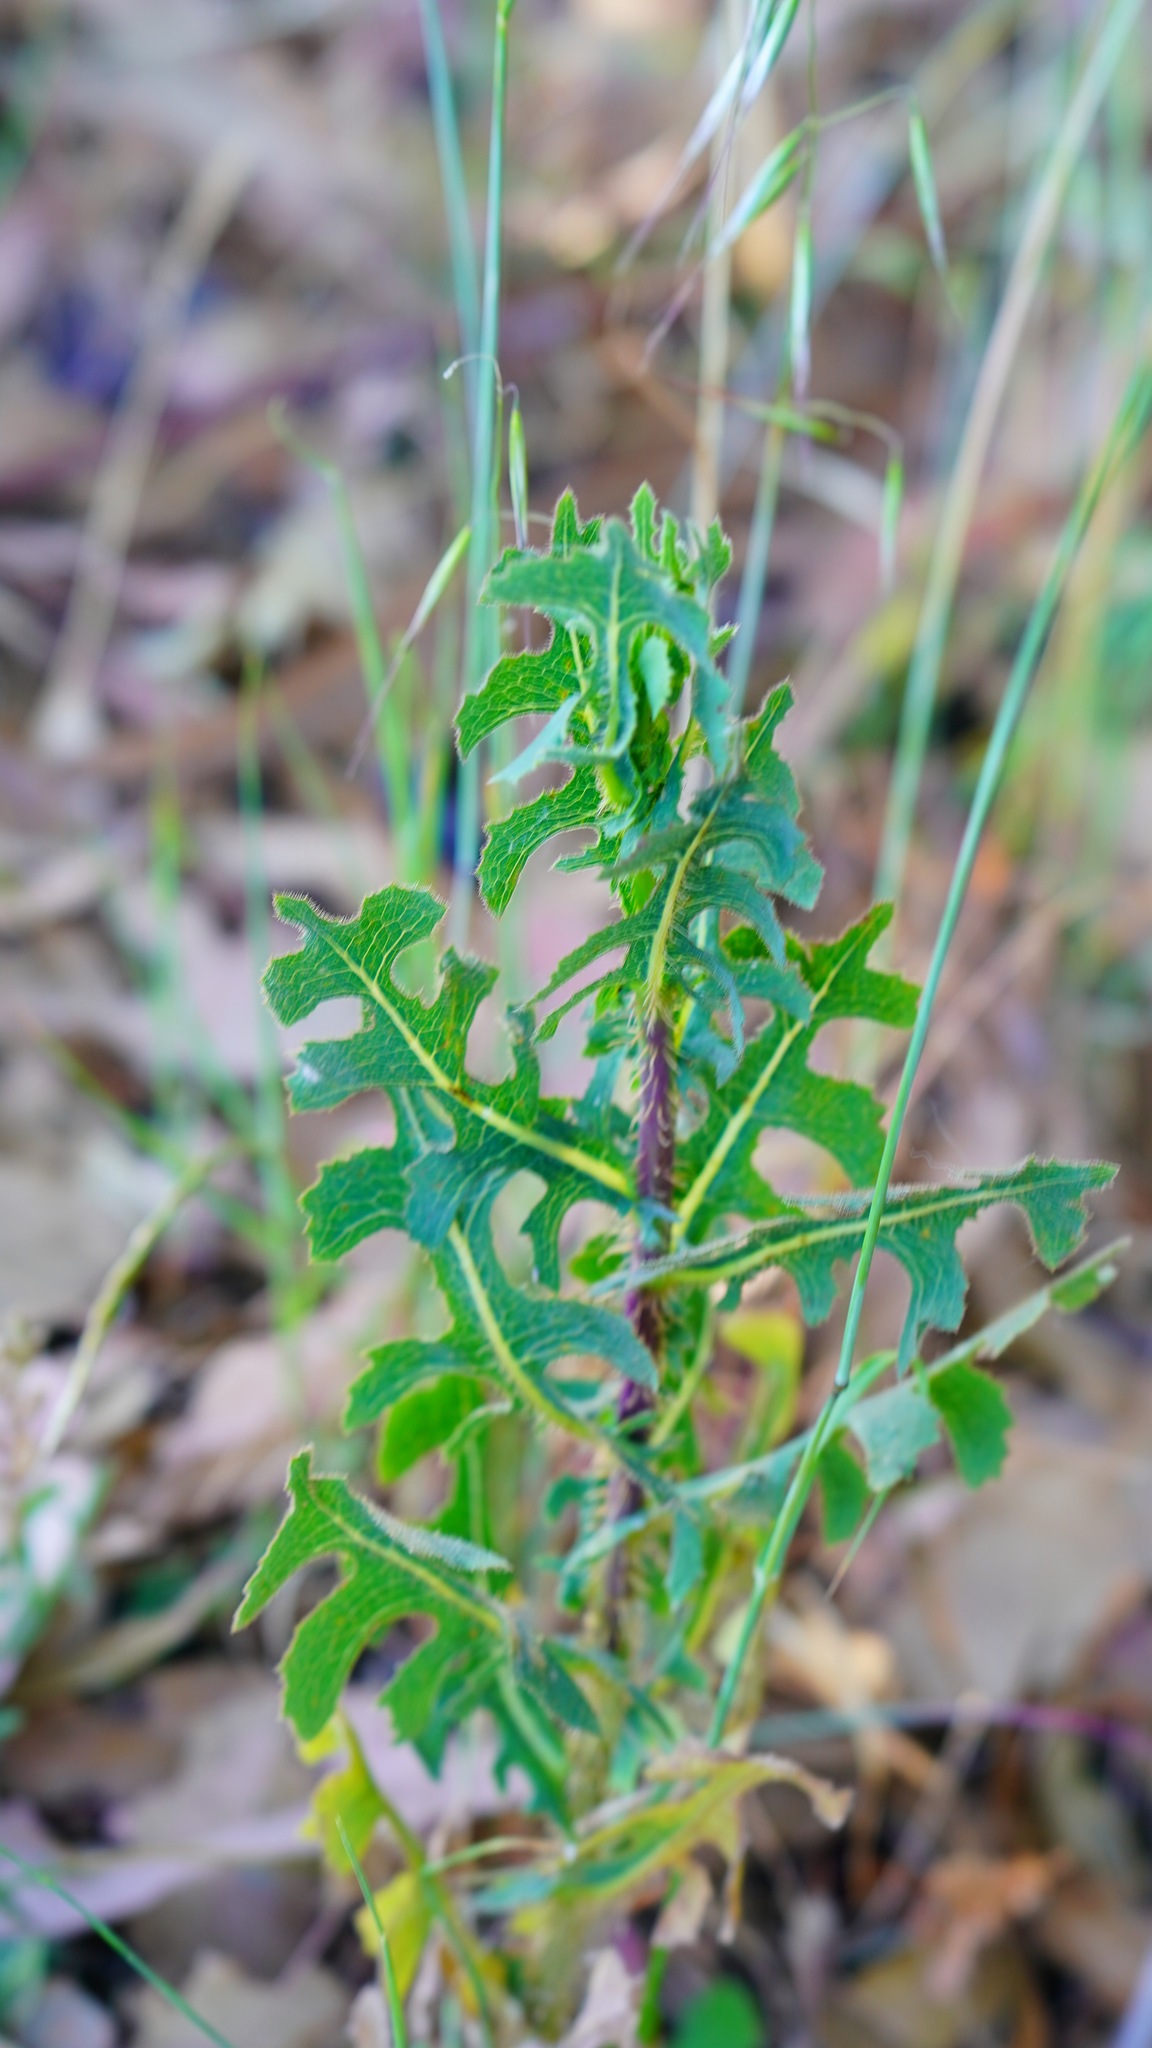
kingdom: Plantae
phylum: Tracheophyta
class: Magnoliopsida
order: Asterales
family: Asteraceae
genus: Lactuca
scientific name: Lactuca serriola
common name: Prickly lettuce
